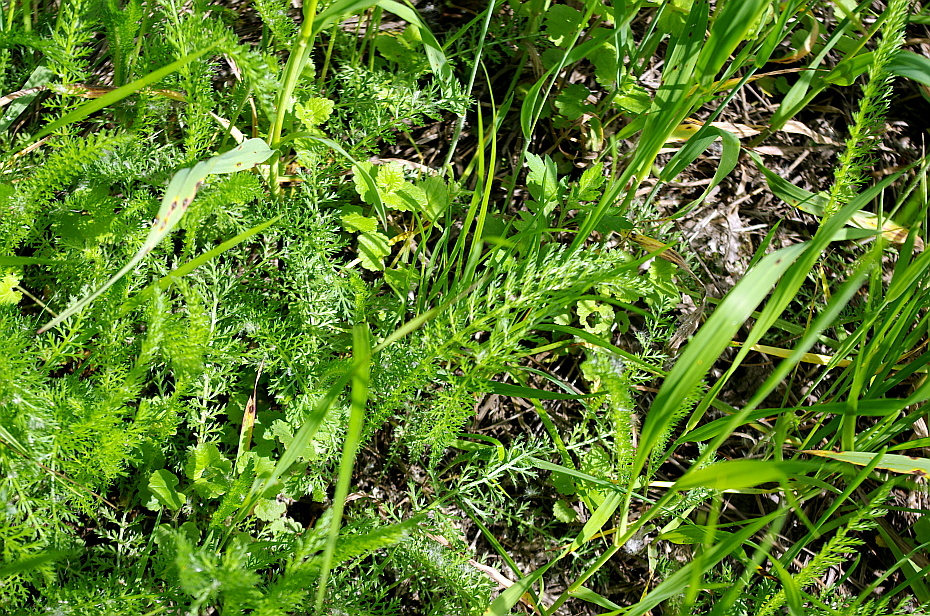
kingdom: Plantae
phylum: Tracheophyta
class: Magnoliopsida
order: Asterales
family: Asteraceae
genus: Achillea
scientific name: Achillea millefolium
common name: Yarrow
